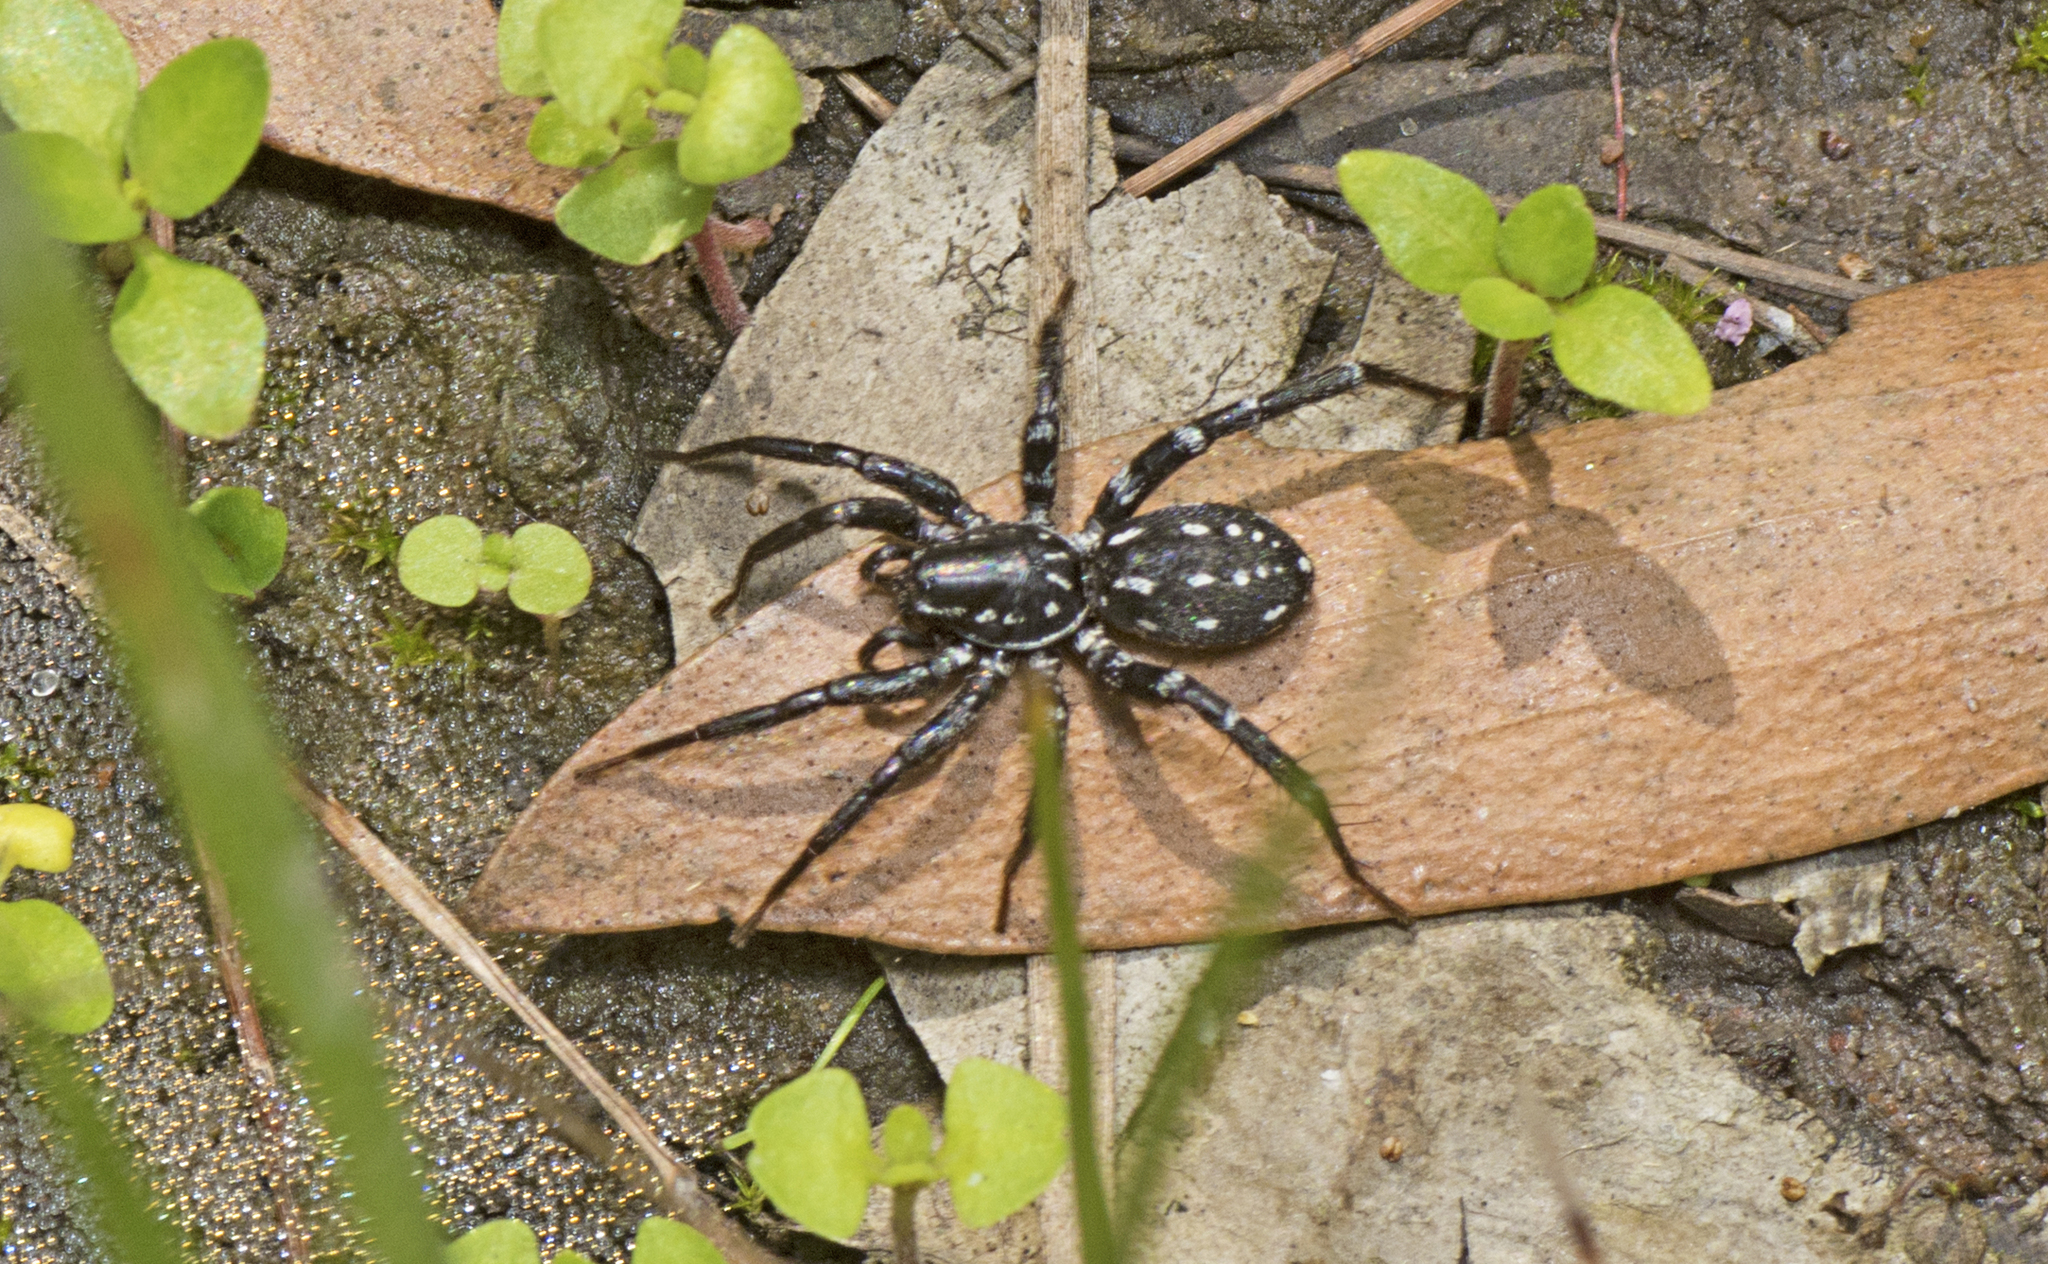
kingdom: Animalia
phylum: Arthropoda
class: Arachnida
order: Araneae
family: Corinnidae
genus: Nyssus
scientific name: Nyssus albopunctatus
